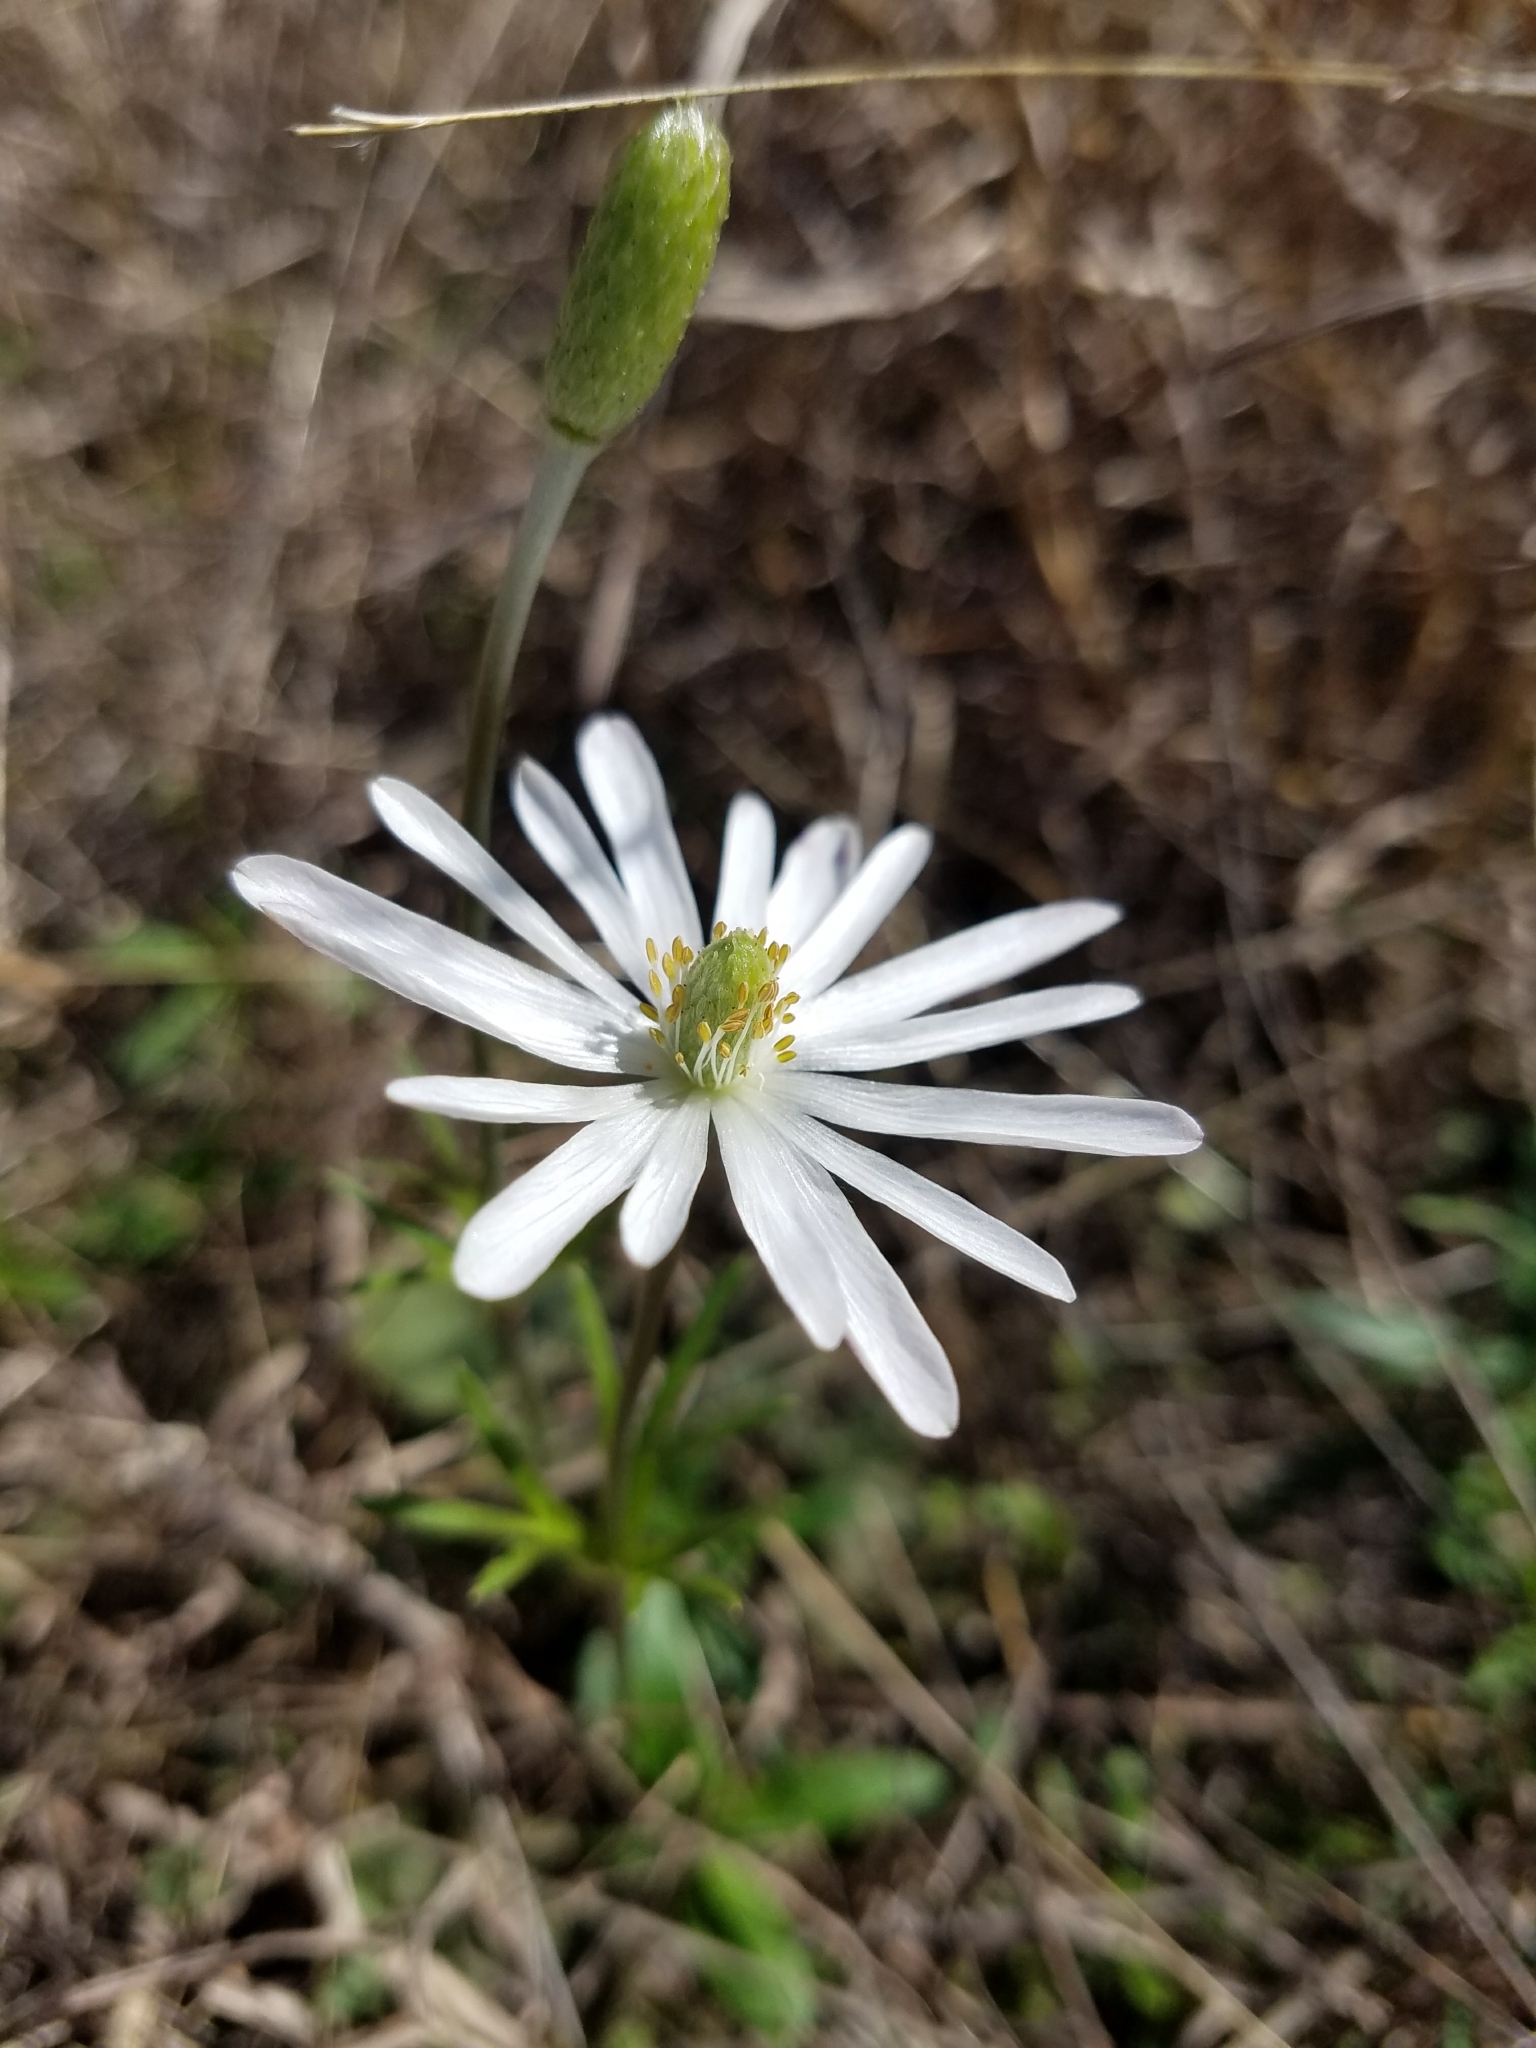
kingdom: Plantae
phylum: Tracheophyta
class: Magnoliopsida
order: Ranunculales
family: Ranunculaceae
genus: Anemone
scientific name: Anemone berlandieri
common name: Ten-petal anemone
